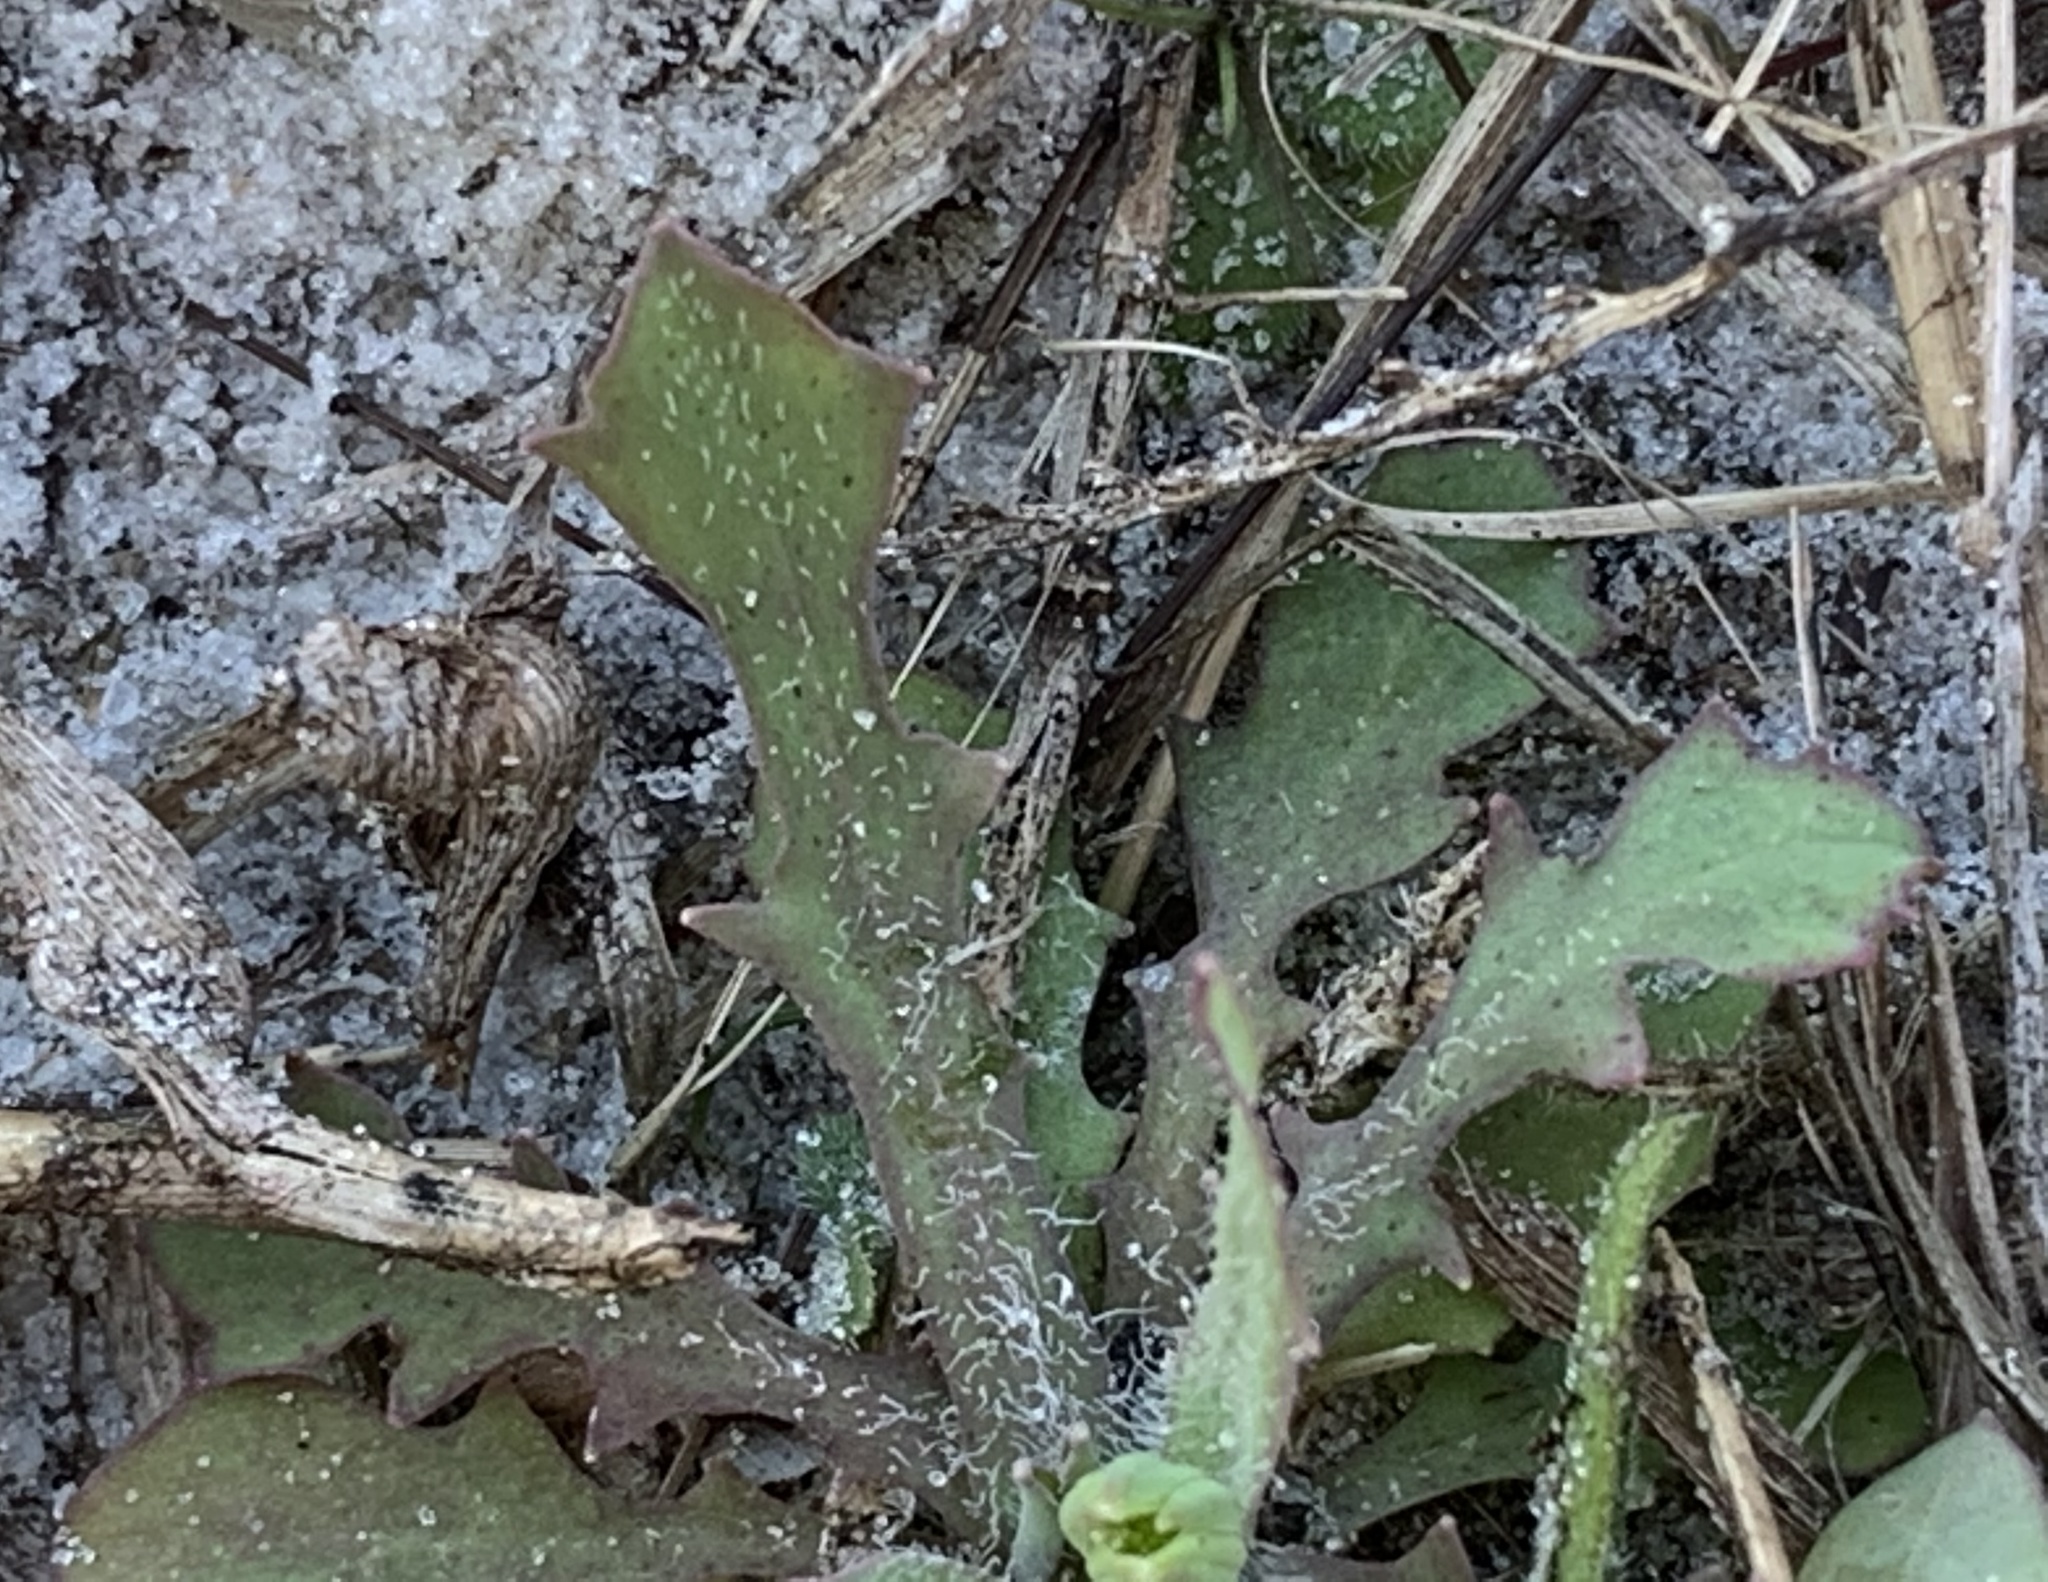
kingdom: Plantae
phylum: Tracheophyta
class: Magnoliopsida
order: Asterales
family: Asteraceae
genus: Krigia
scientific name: Krigia virginica
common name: Virginia dwarf-dandelion
